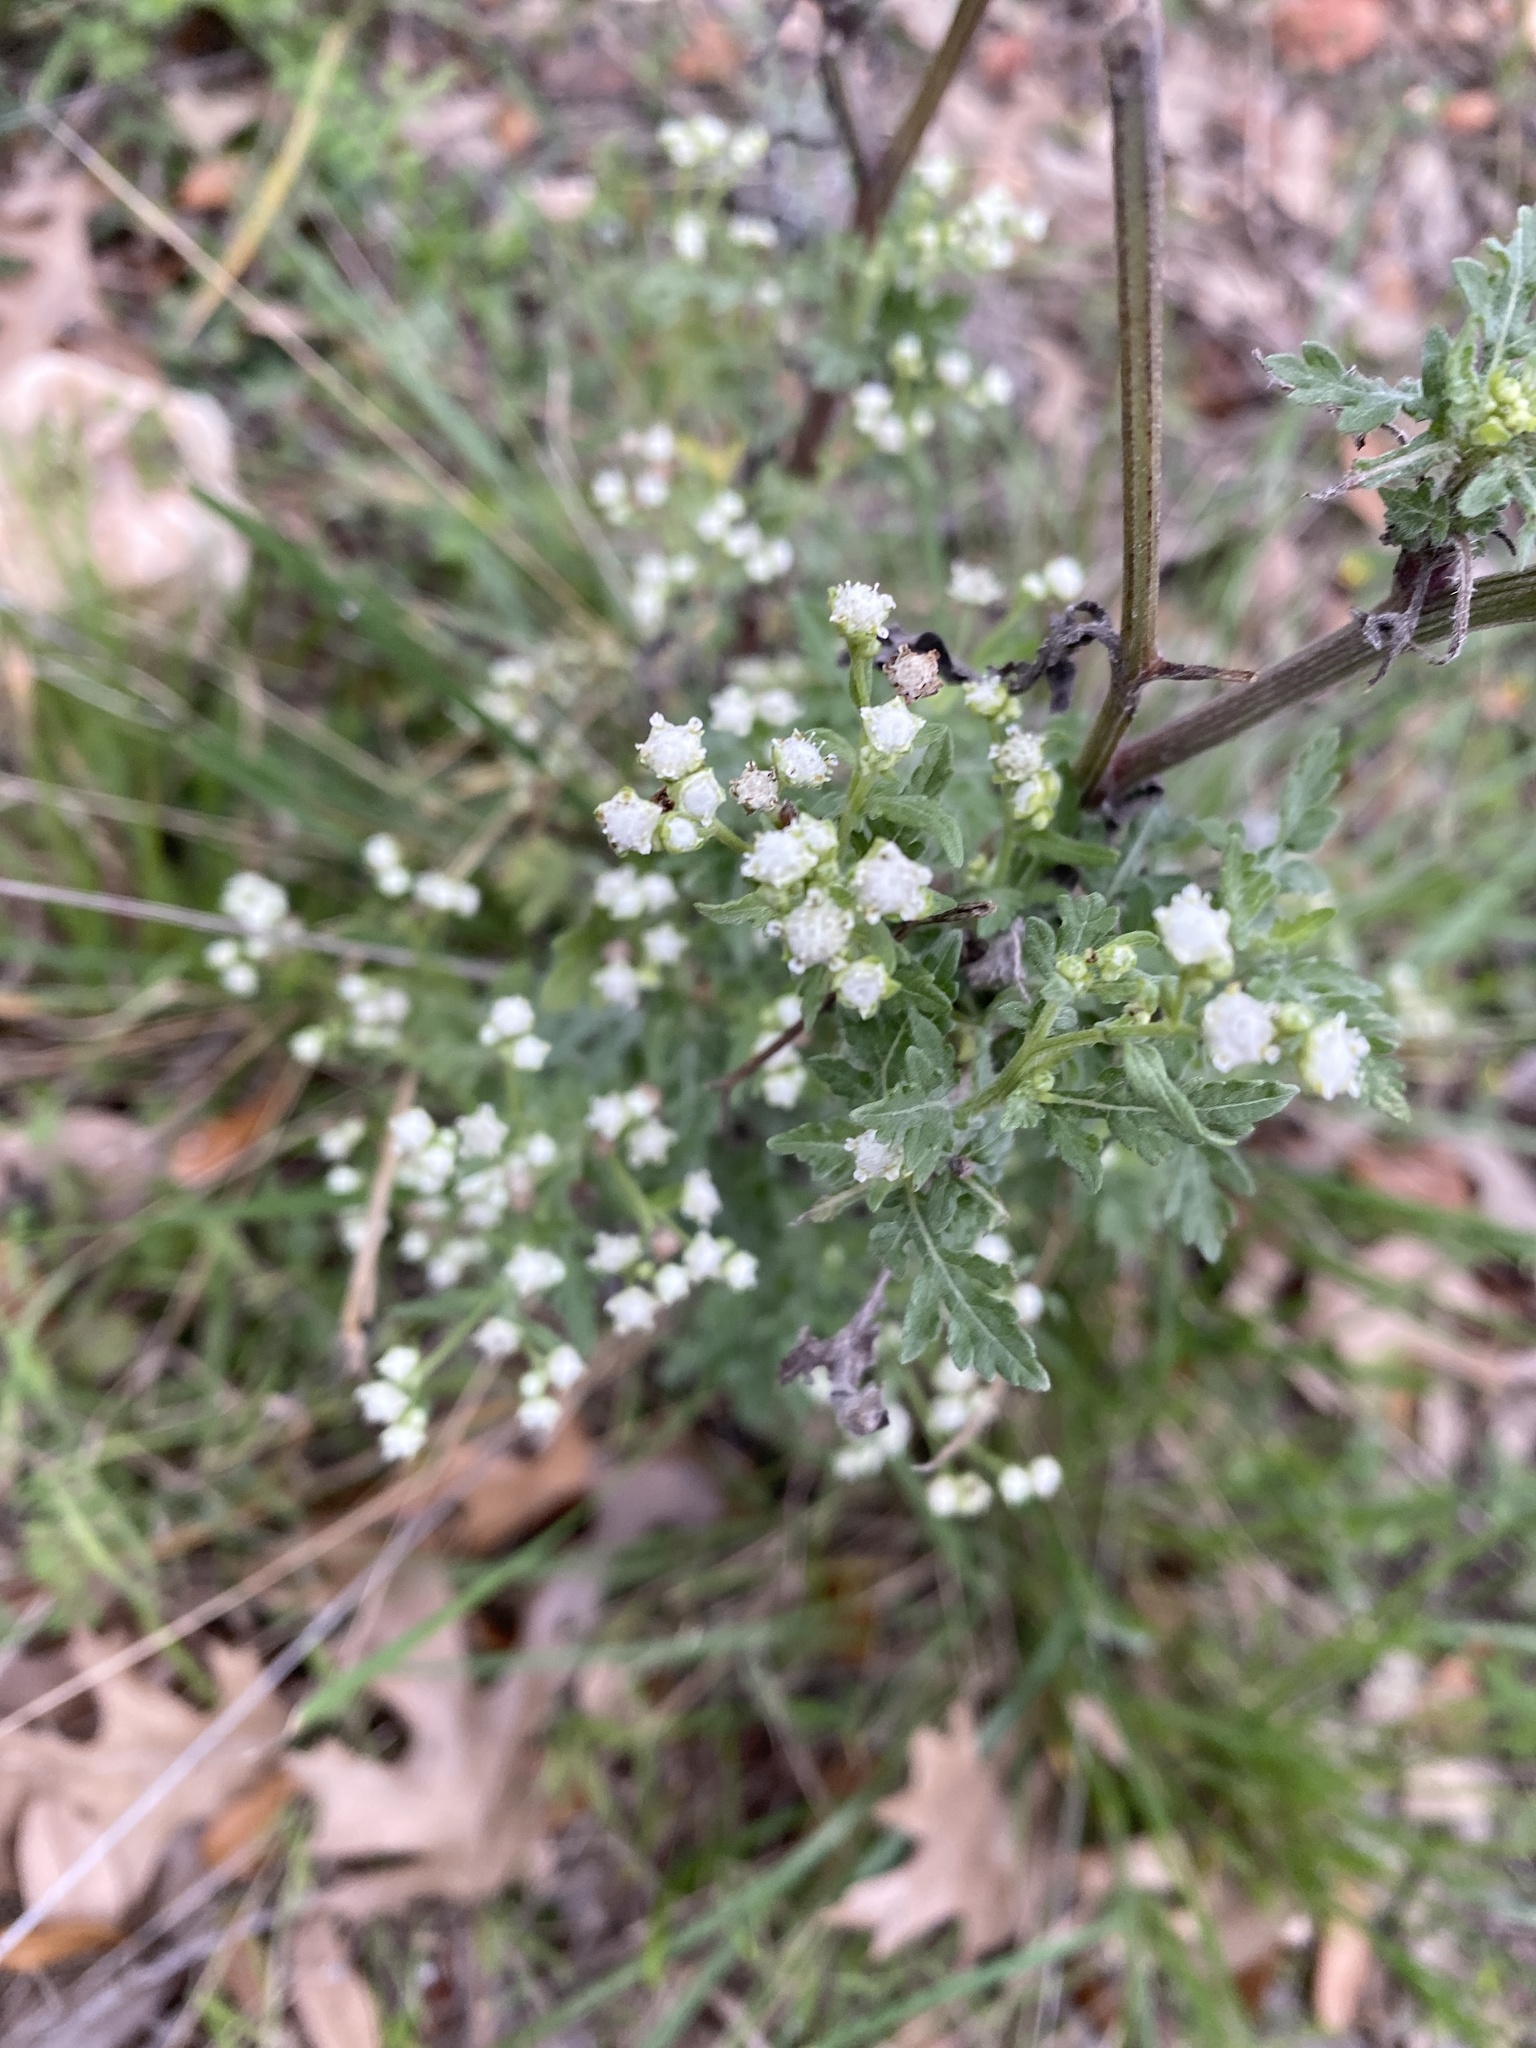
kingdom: Plantae
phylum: Tracheophyta
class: Magnoliopsida
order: Asterales
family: Asteraceae
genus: Parthenium
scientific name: Parthenium hysterophorus
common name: Santa maria feverfew
